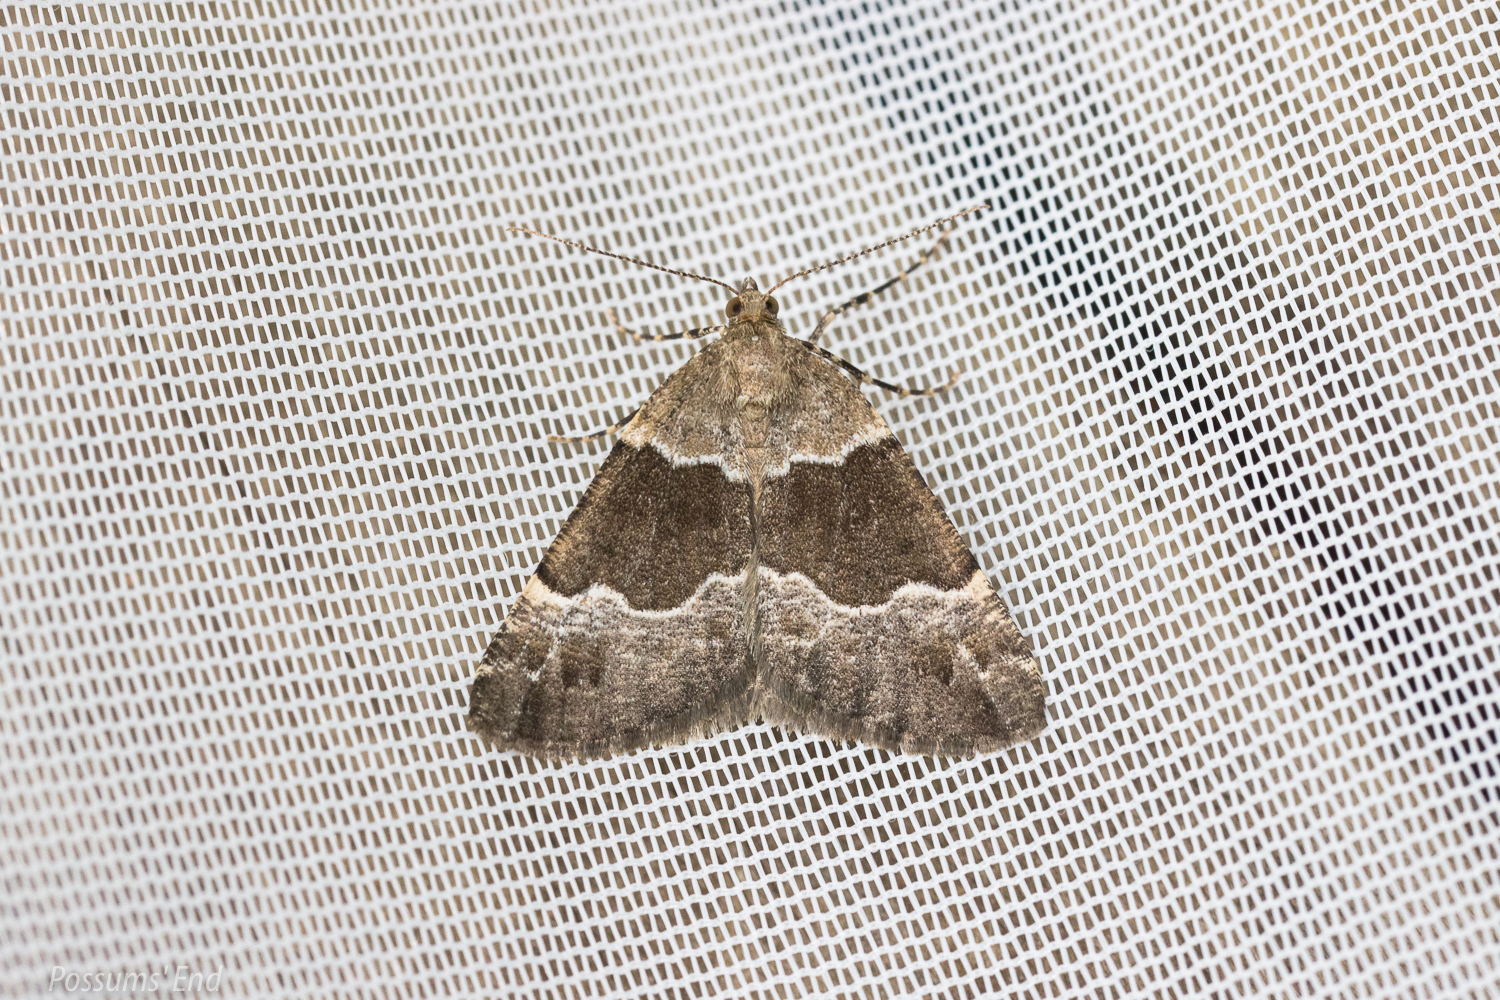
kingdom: Animalia
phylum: Arthropoda
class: Insecta
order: Lepidoptera
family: Geometridae
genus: Pseudocoremia
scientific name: Pseudocoremia
